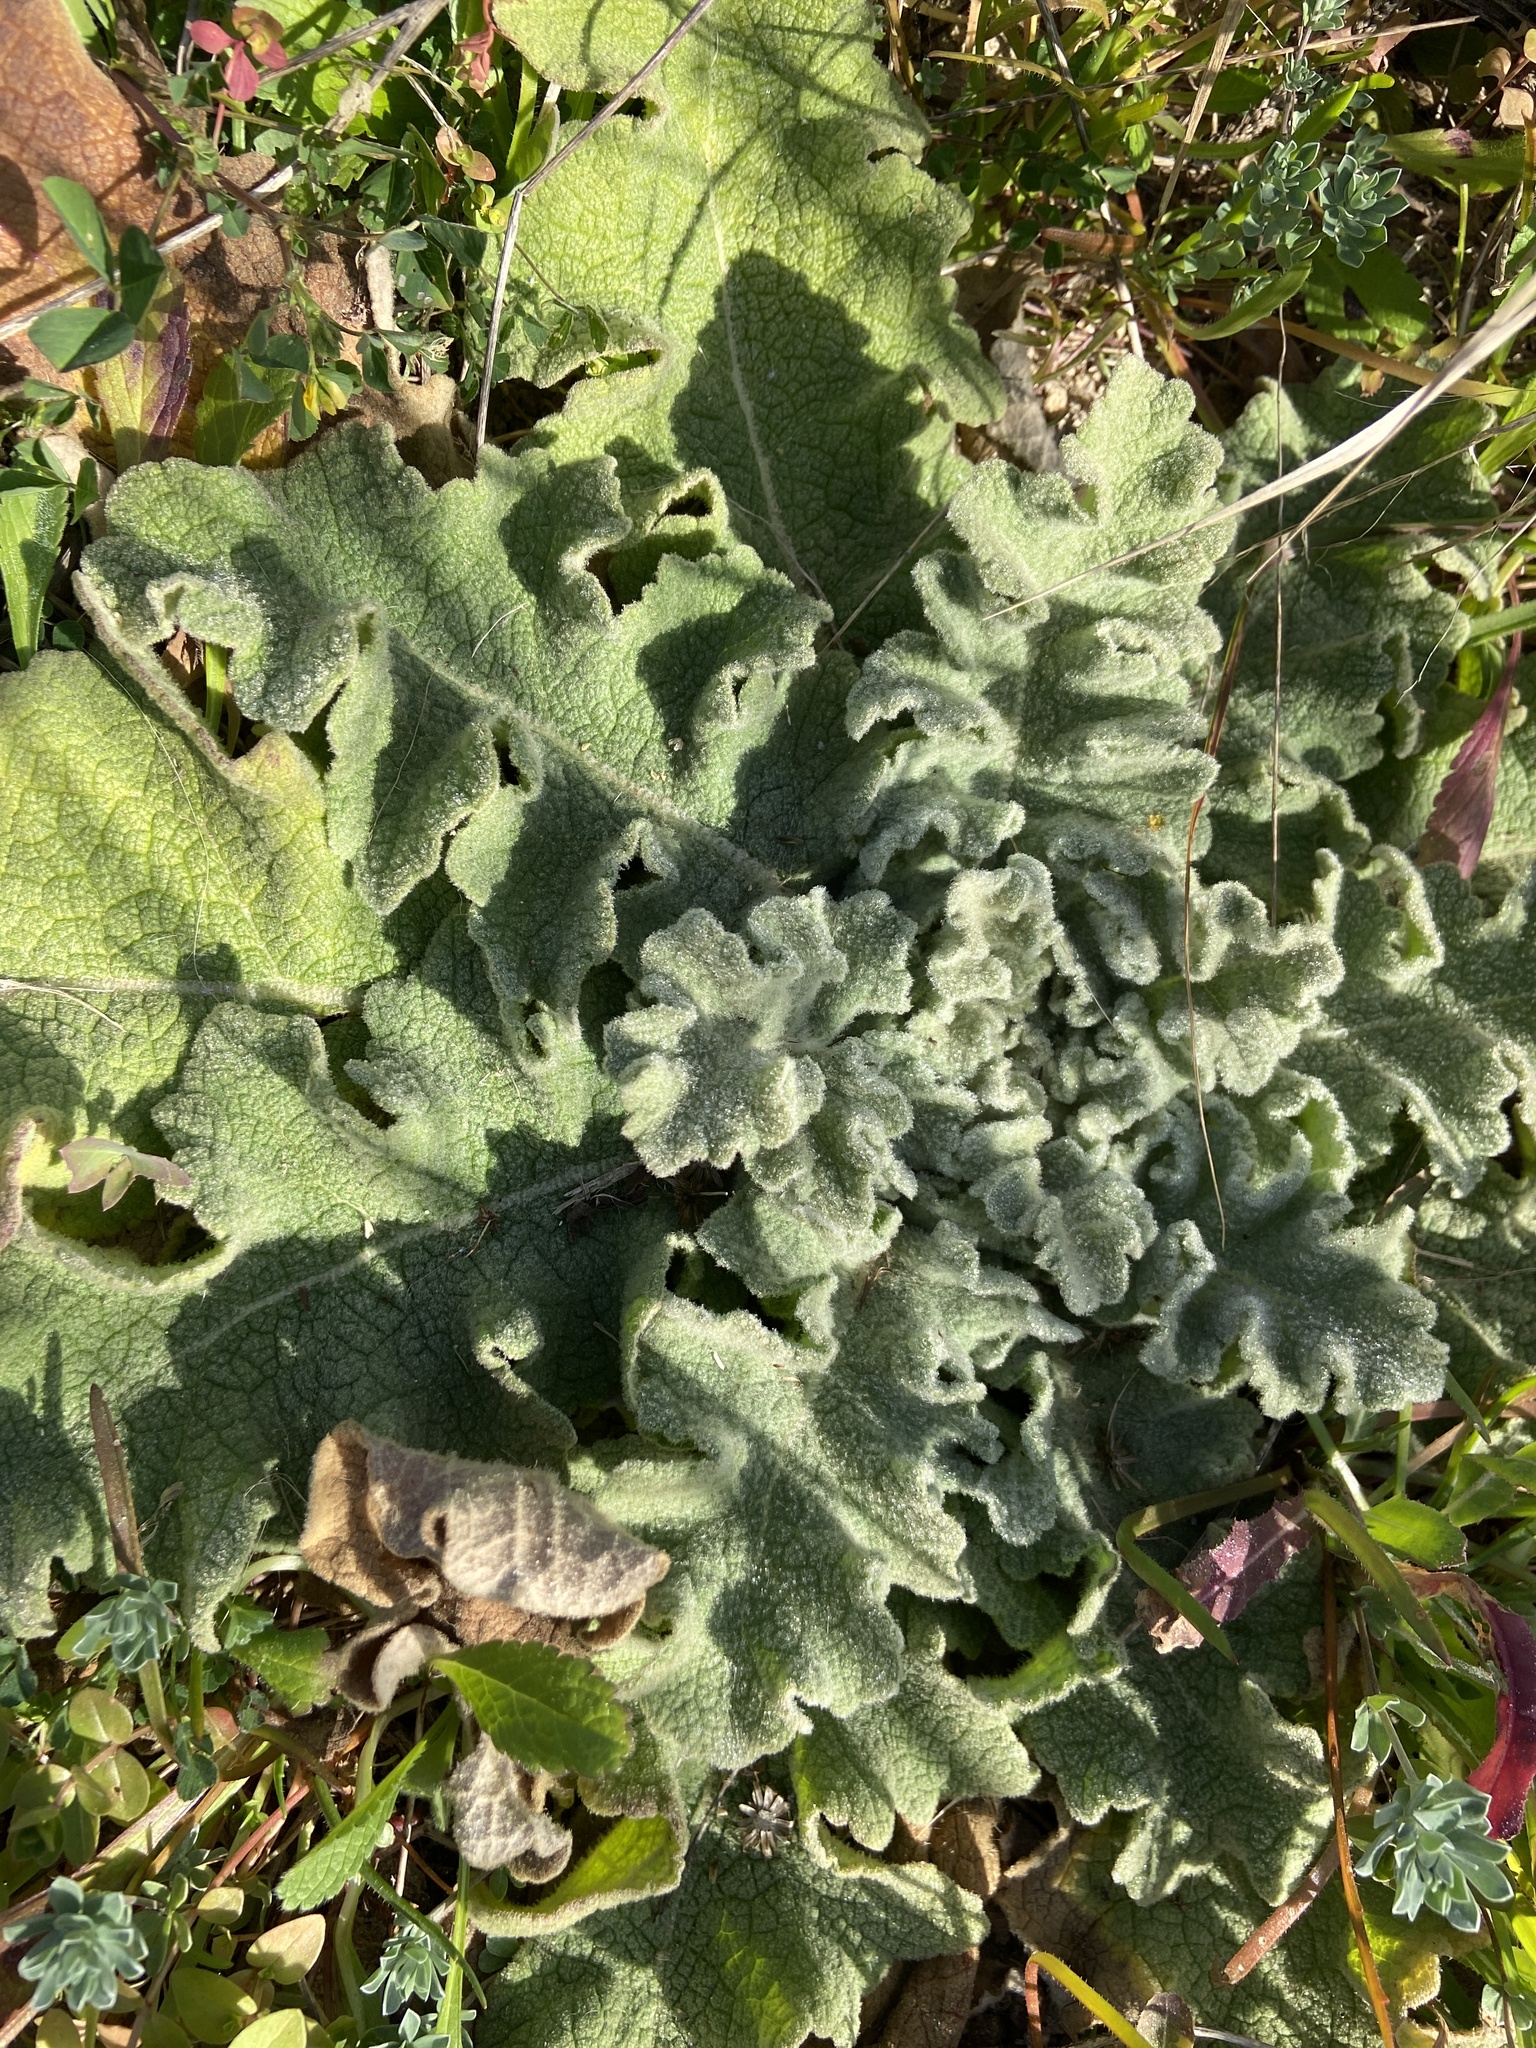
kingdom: Plantae
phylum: Tracheophyta
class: Magnoliopsida
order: Lamiales
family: Scrophulariaceae
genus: Verbascum
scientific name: Verbascum sinuatum
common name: Wavyleaf mullein
